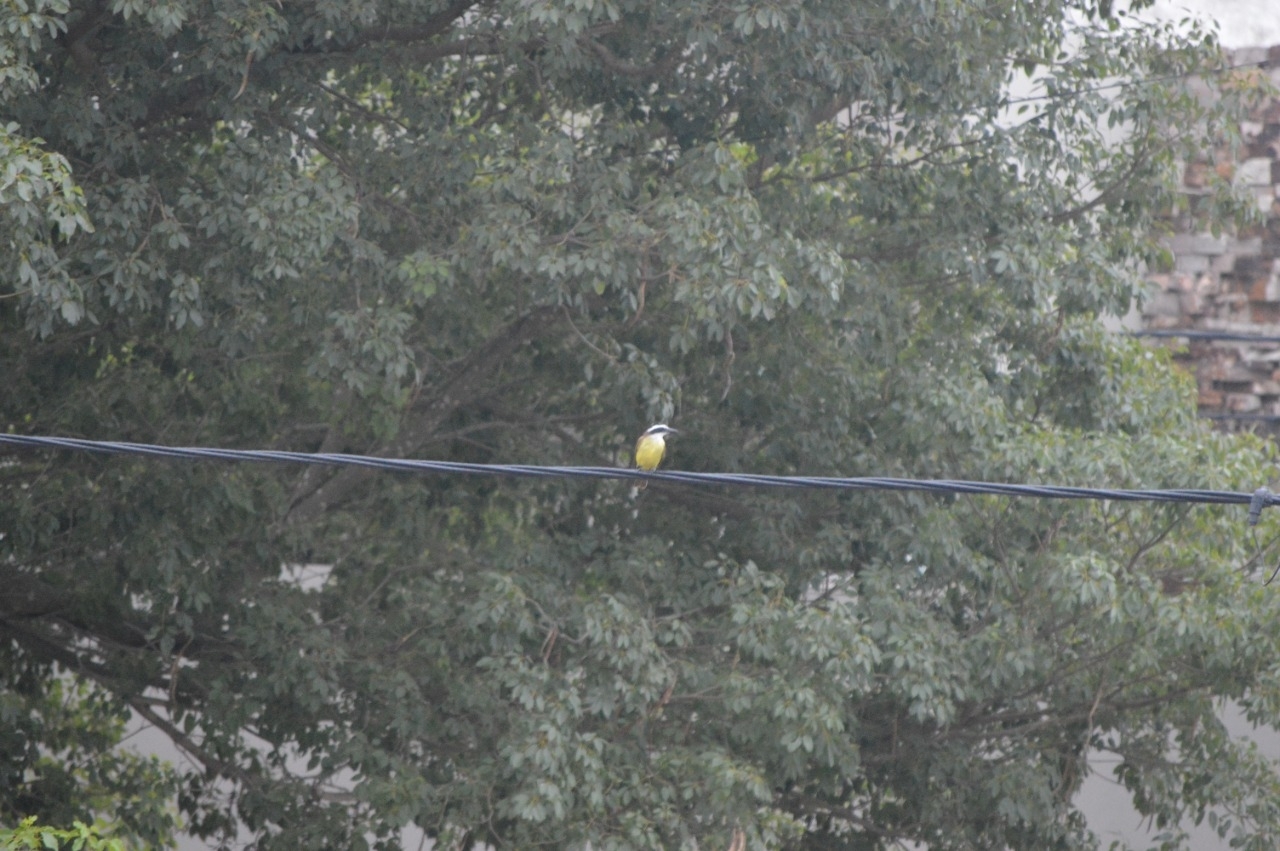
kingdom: Animalia
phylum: Chordata
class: Aves
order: Passeriformes
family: Tyrannidae
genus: Pitangus
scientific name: Pitangus sulphuratus
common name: Great kiskadee
